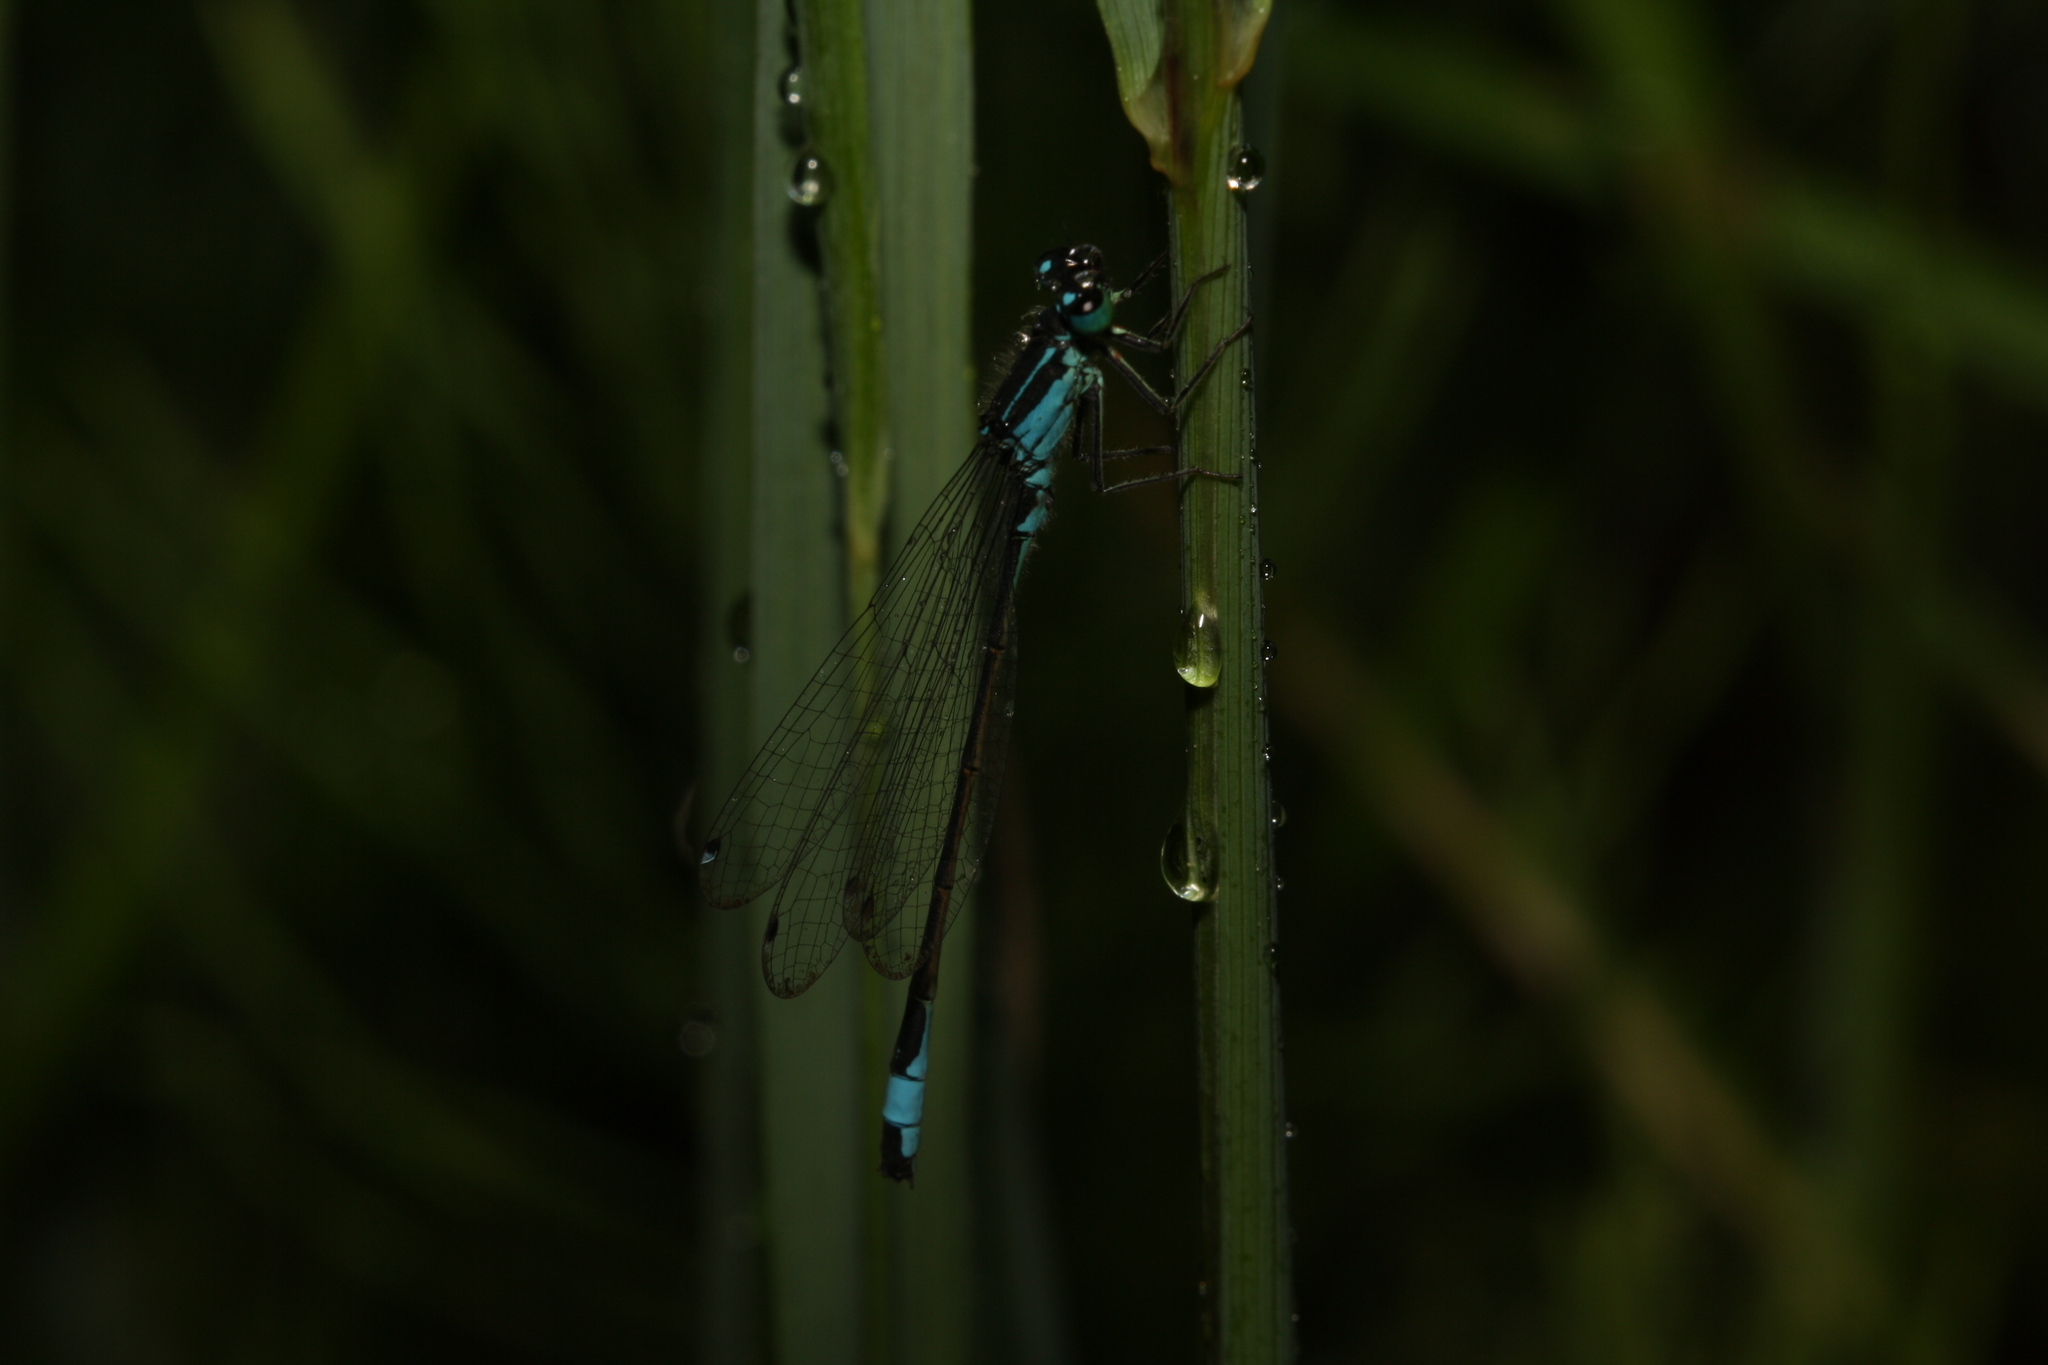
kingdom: Animalia
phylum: Arthropoda
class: Insecta
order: Odonata
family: Coenagrionidae
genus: Ischnura
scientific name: Ischnura elegans
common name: Blue-tailed damselfly
